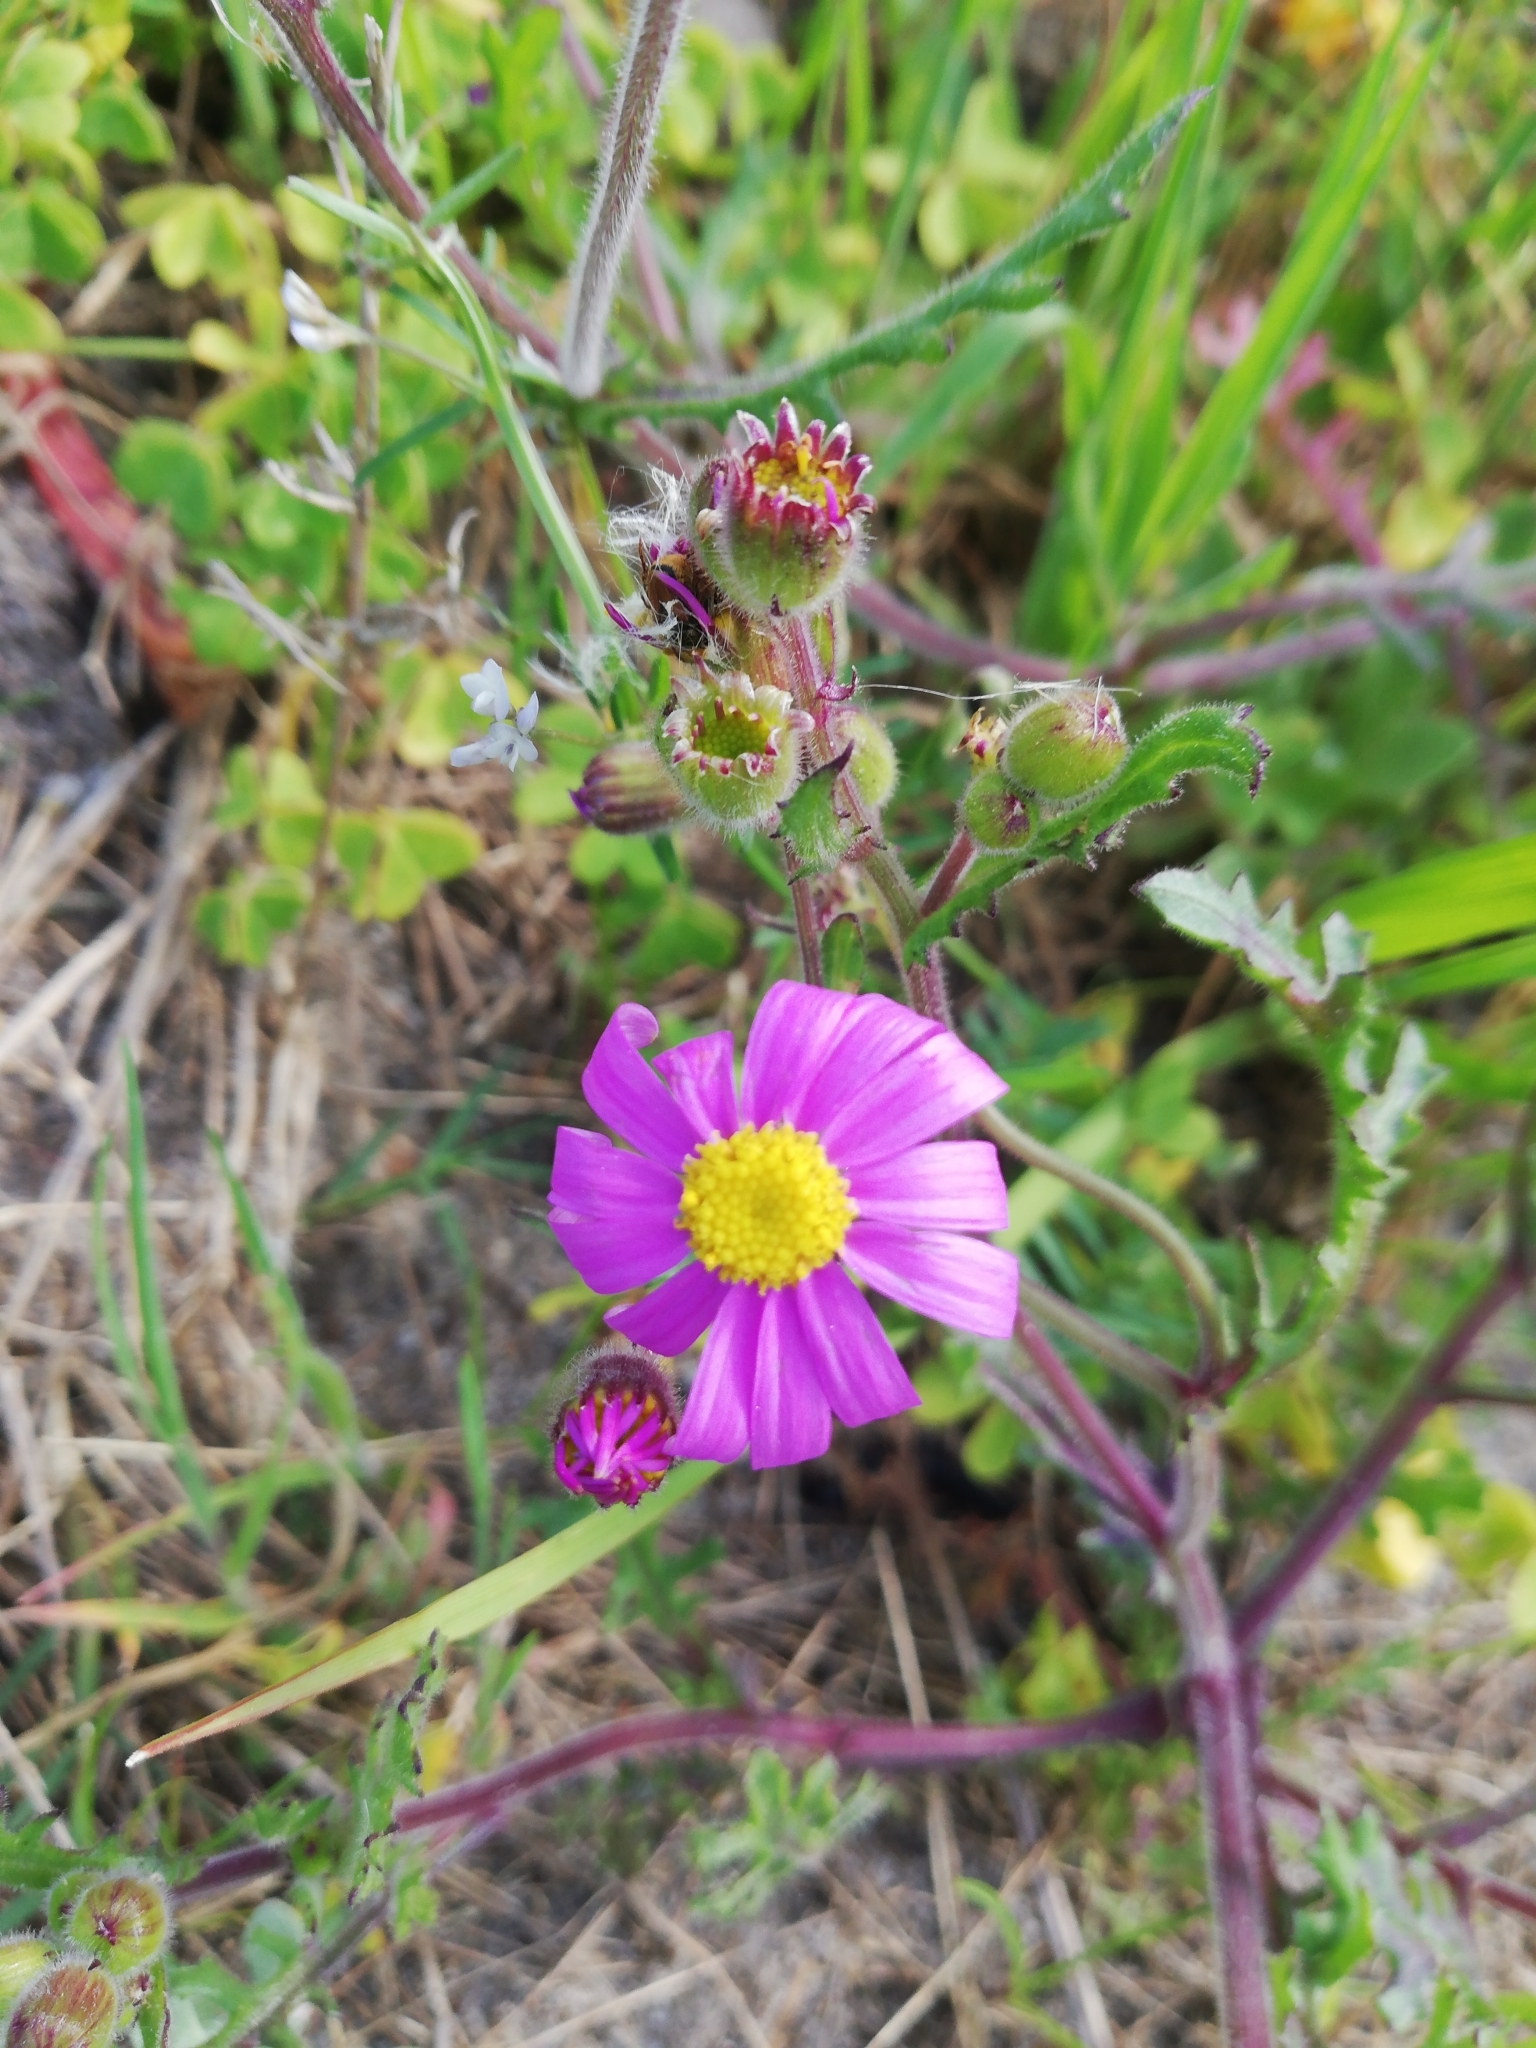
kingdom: Plantae
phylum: Tracheophyta
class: Magnoliopsida
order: Asterales
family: Asteraceae
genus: Senecio
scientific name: Senecio arenarius
